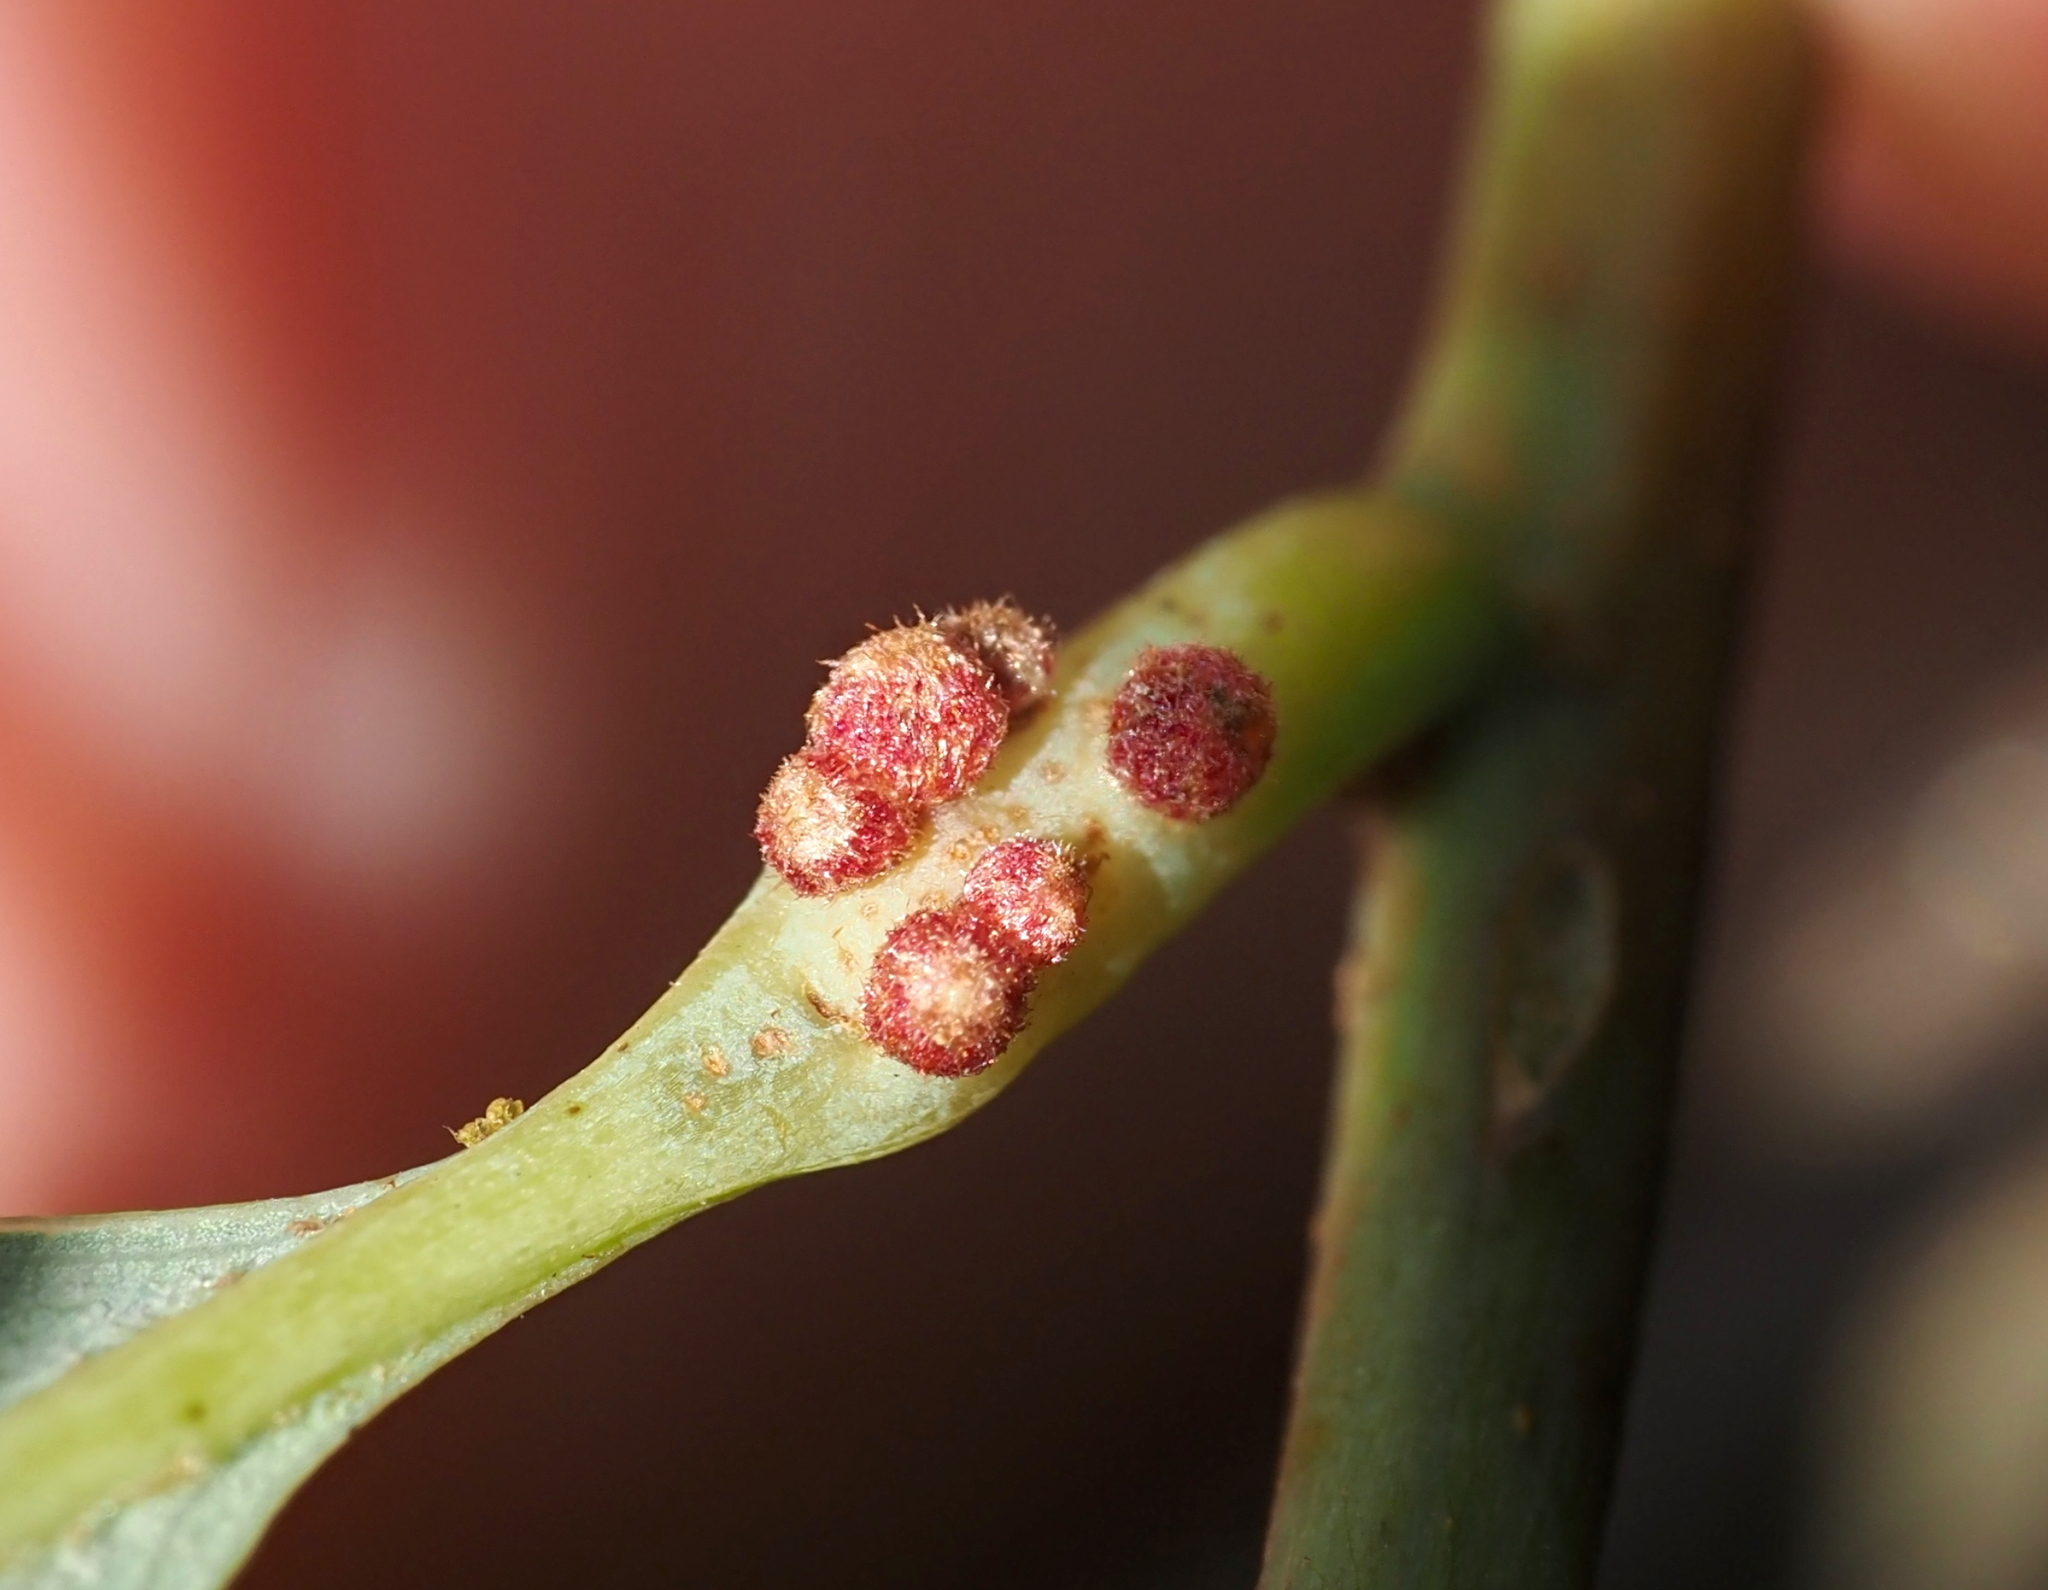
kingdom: Animalia
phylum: Arthropoda
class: Insecta
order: Hymenoptera
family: Cynipidae
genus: Andricus
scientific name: Andricus
